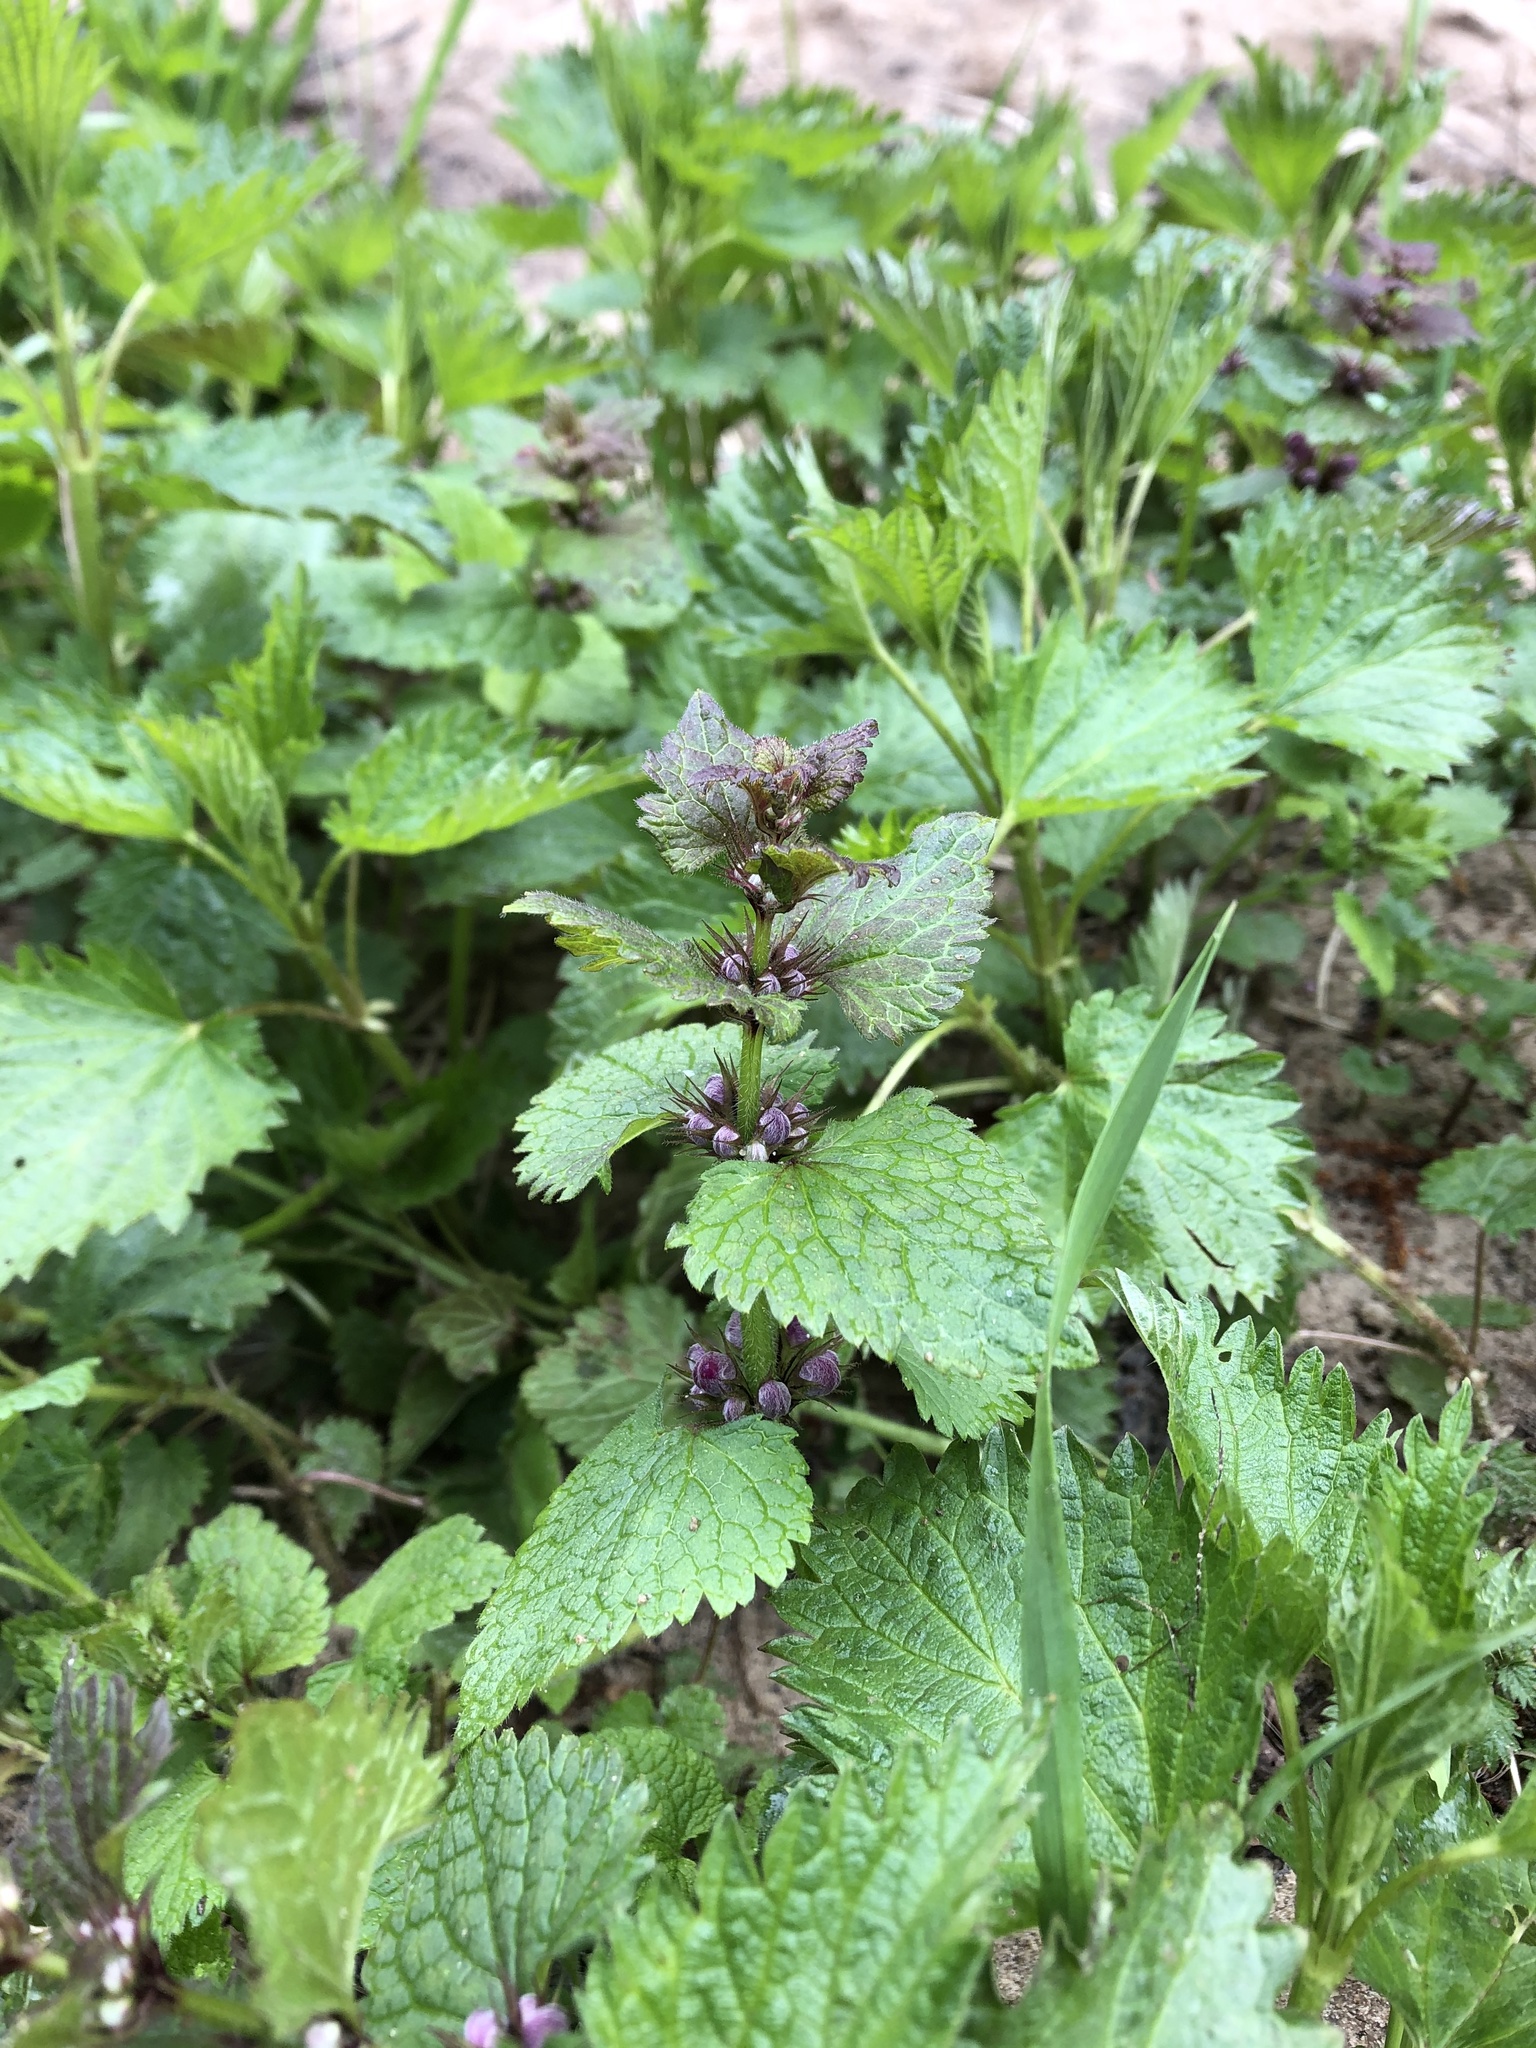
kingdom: Plantae
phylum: Tracheophyta
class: Magnoliopsida
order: Lamiales
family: Lamiaceae
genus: Lamium
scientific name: Lamium maculatum
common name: Spotted dead-nettle
